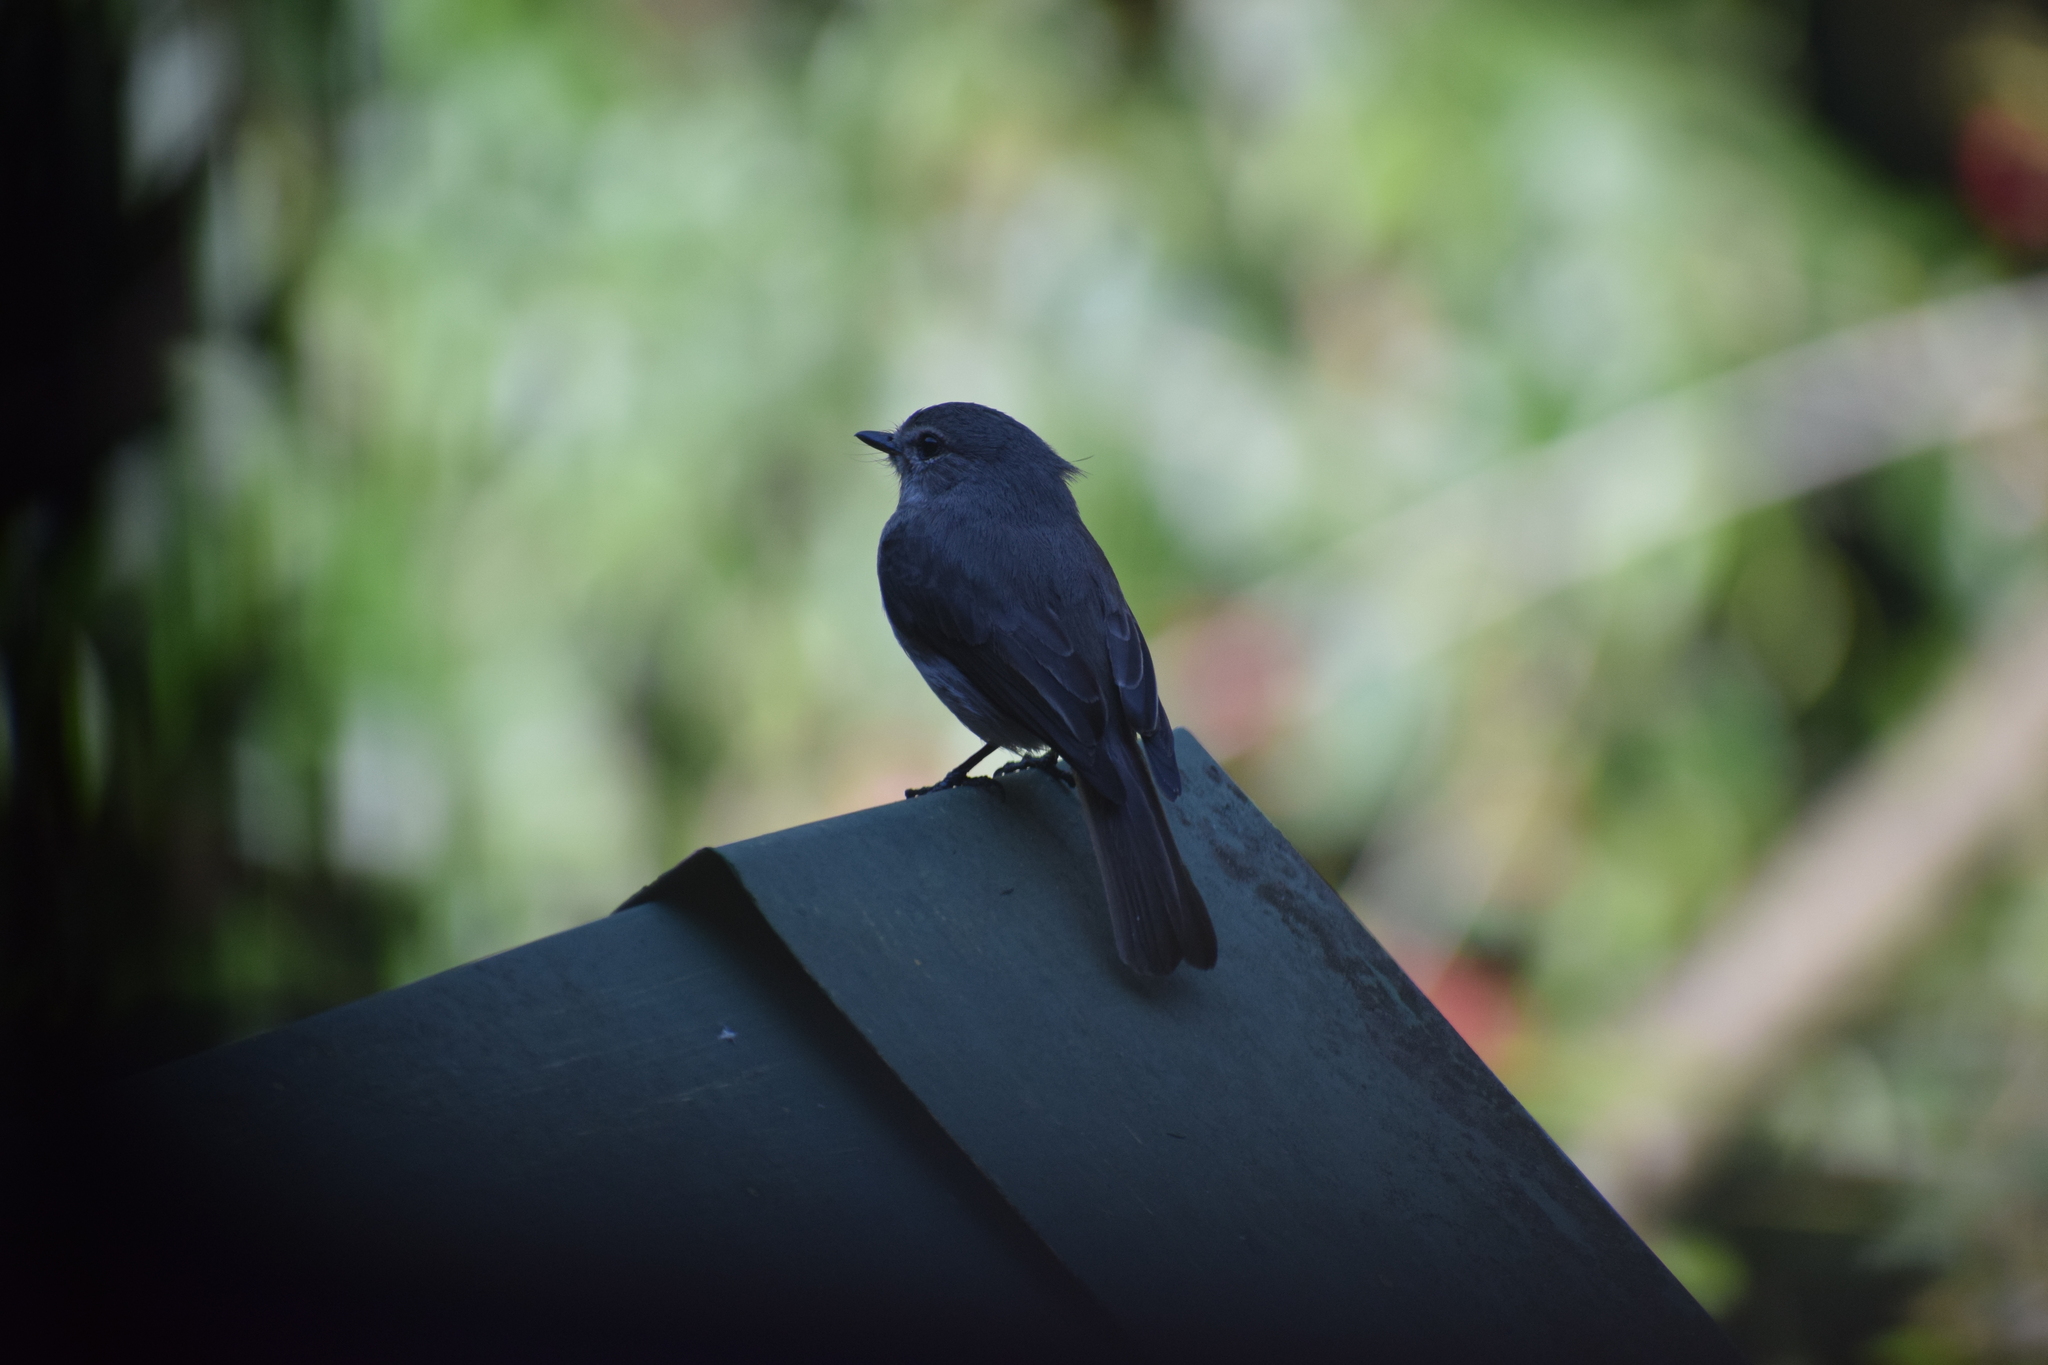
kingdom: Animalia
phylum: Chordata
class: Aves
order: Passeriformes
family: Muscicapidae
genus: Muscicapa
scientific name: Muscicapa adusta
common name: African dusky flycatcher
